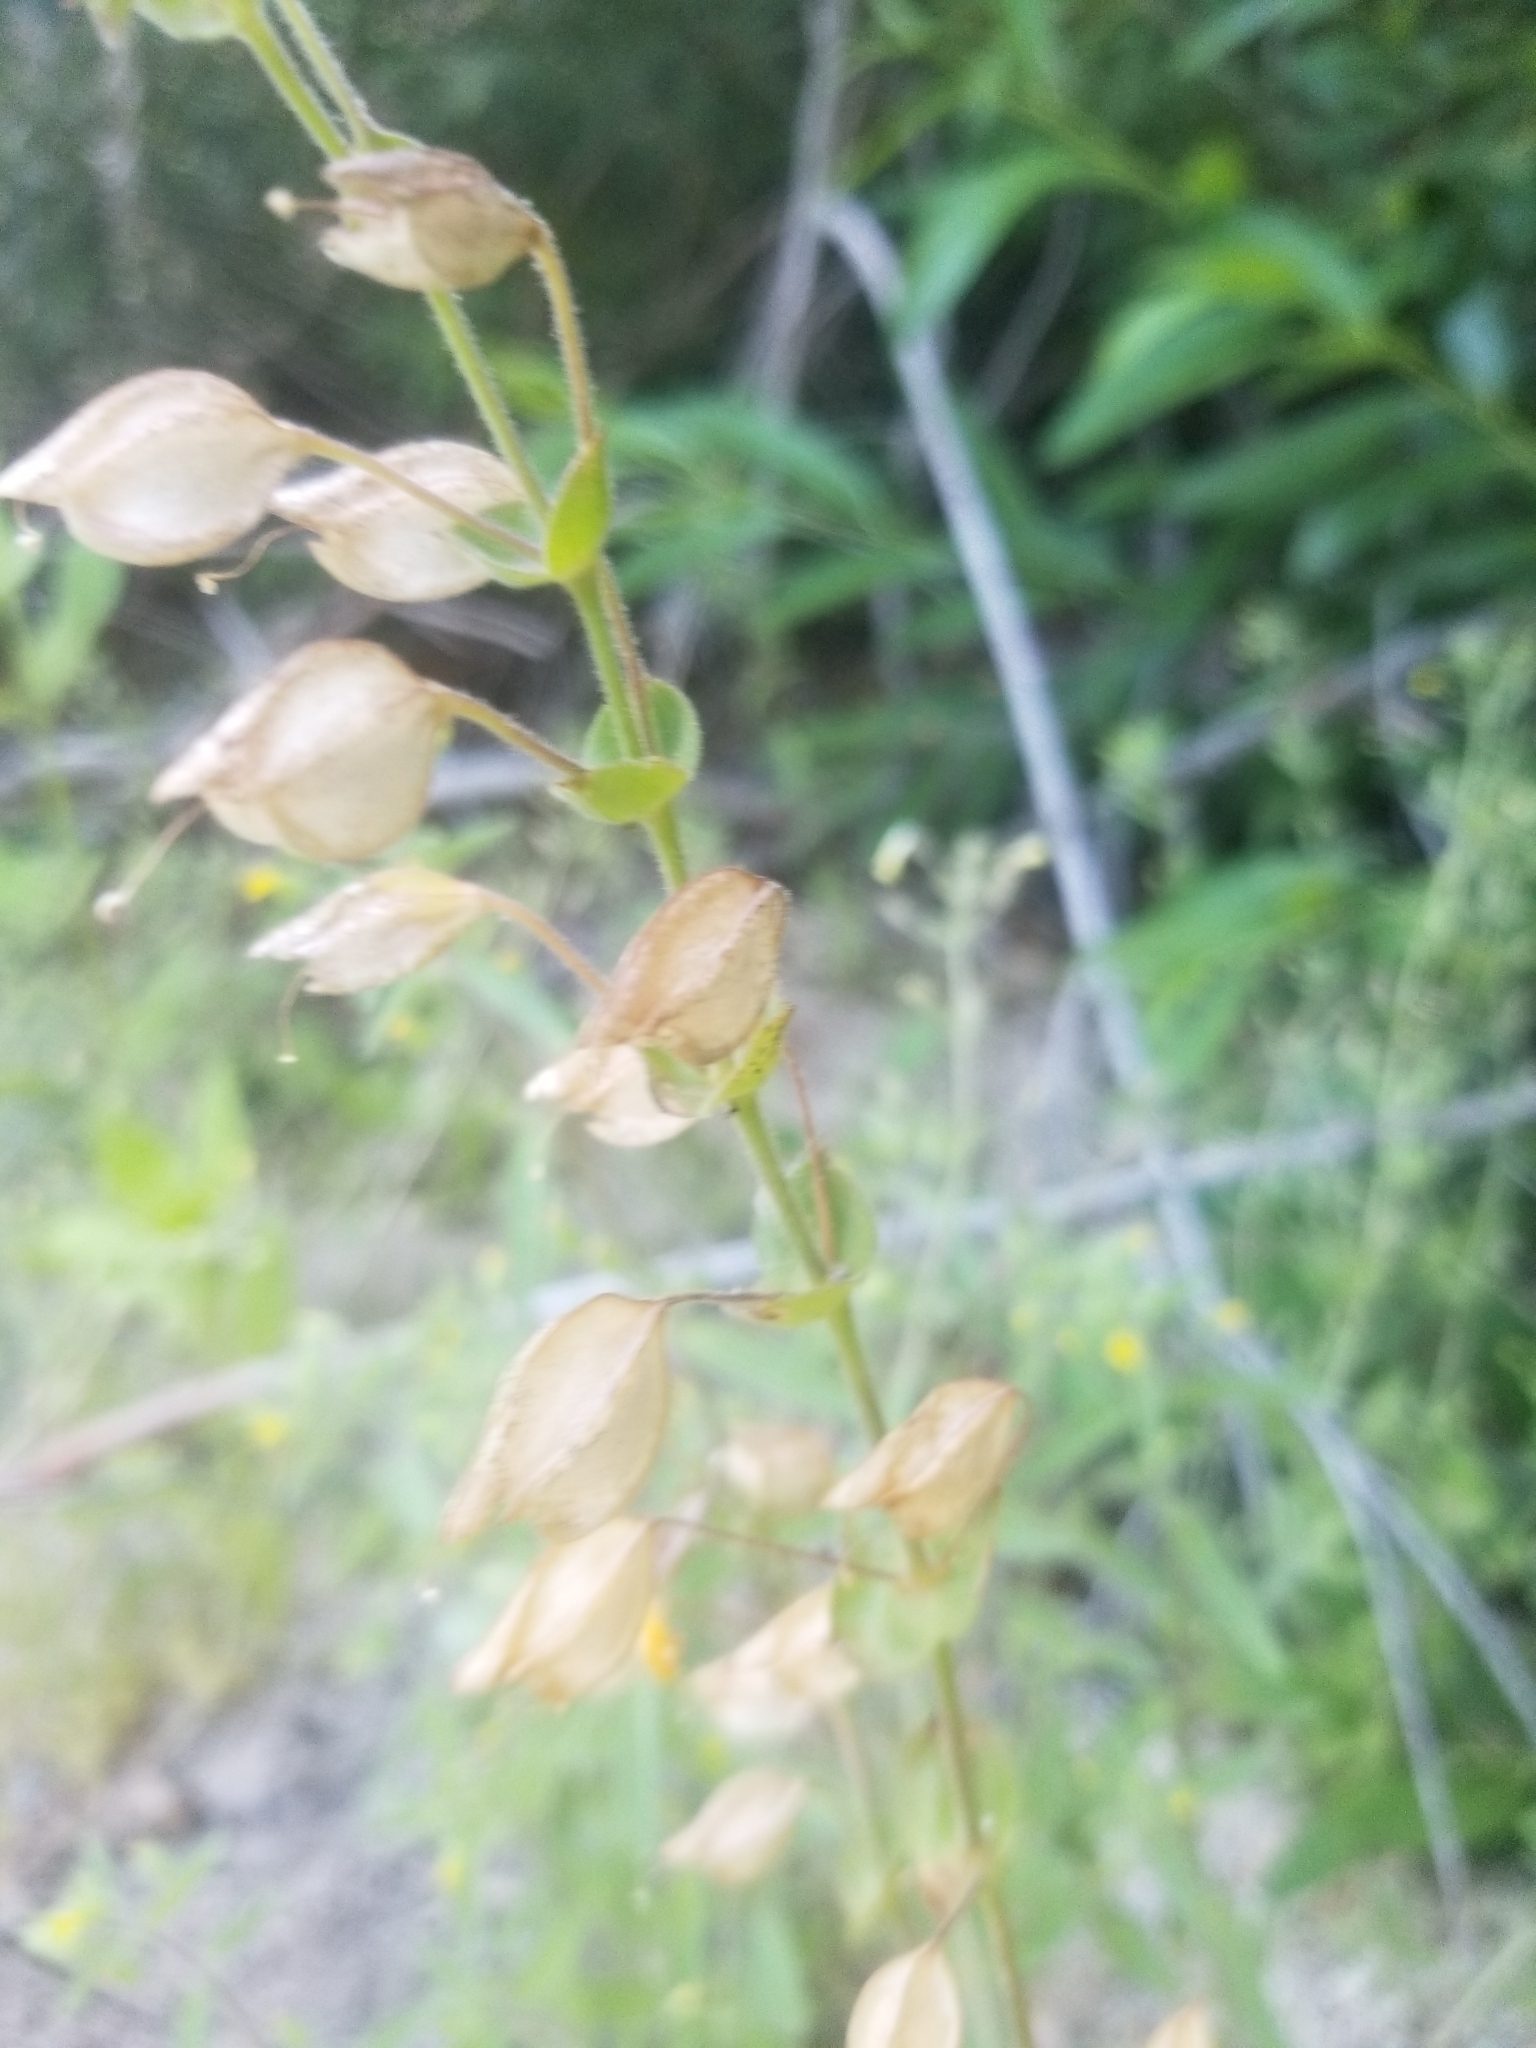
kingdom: Plantae
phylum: Tracheophyta
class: Magnoliopsida
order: Lamiales
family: Phrymaceae
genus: Erythranthe
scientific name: Erythranthe guttata
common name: Monkeyflower
